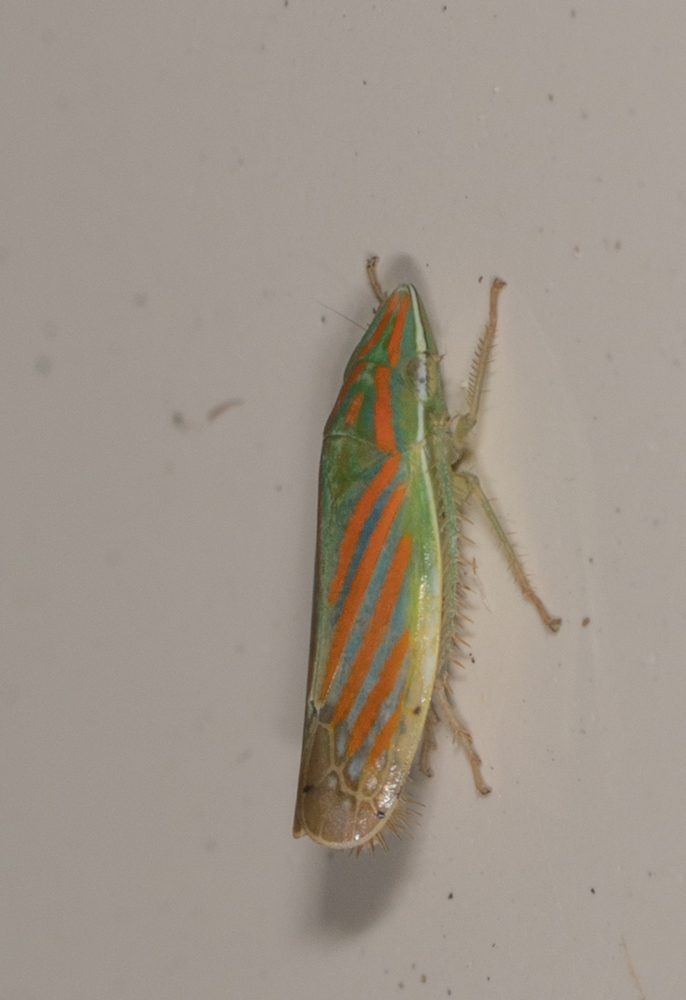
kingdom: Animalia
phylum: Arthropoda
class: Insecta
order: Hemiptera
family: Cicadellidae
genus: Spangbergiella
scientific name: Spangbergiella mexicana
